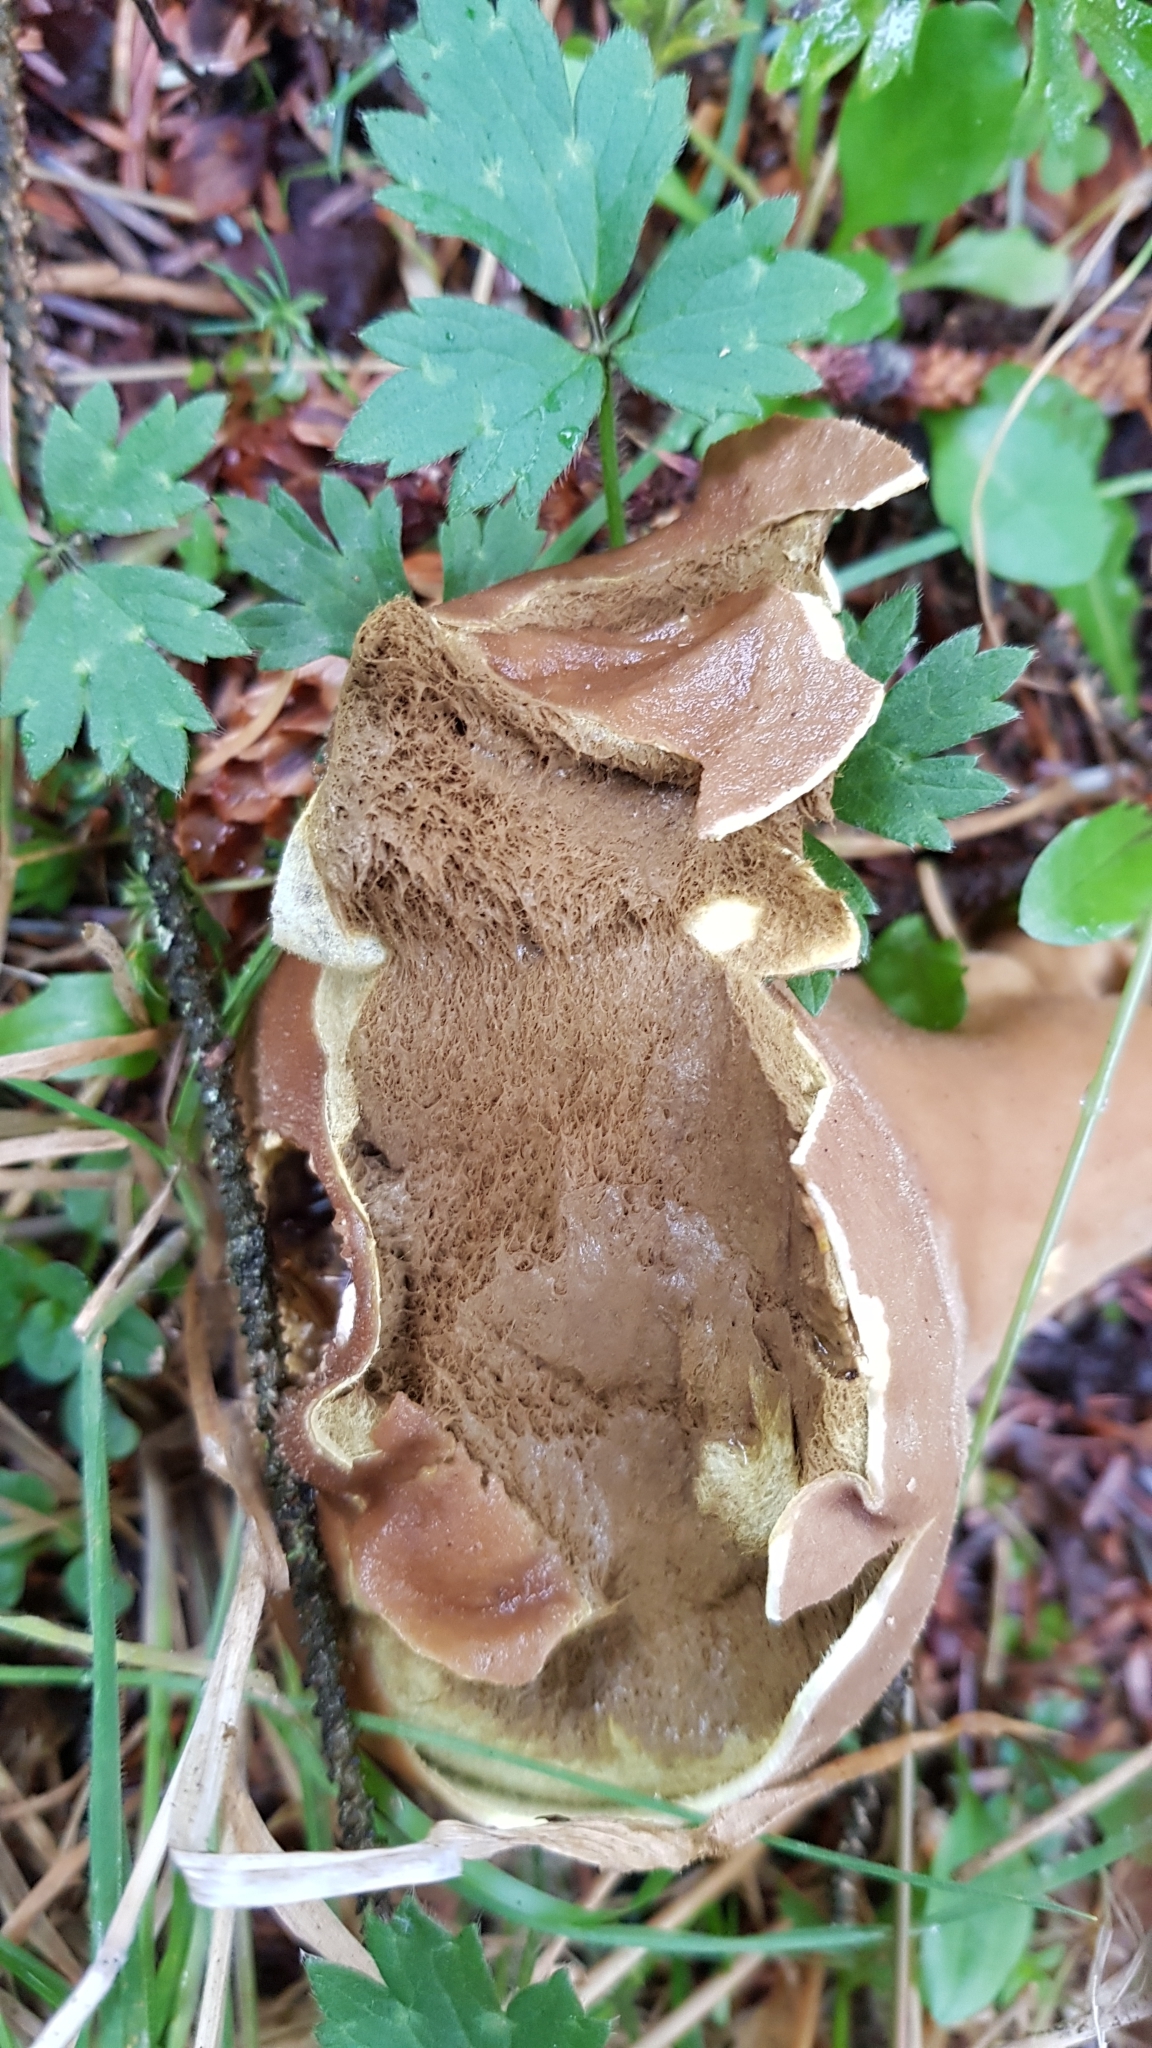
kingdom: Fungi
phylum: Basidiomycota
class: Agaricomycetes
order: Agaricales
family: Lycoperdaceae
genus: Lycoperdon
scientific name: Lycoperdon perlatum
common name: Common puffball
